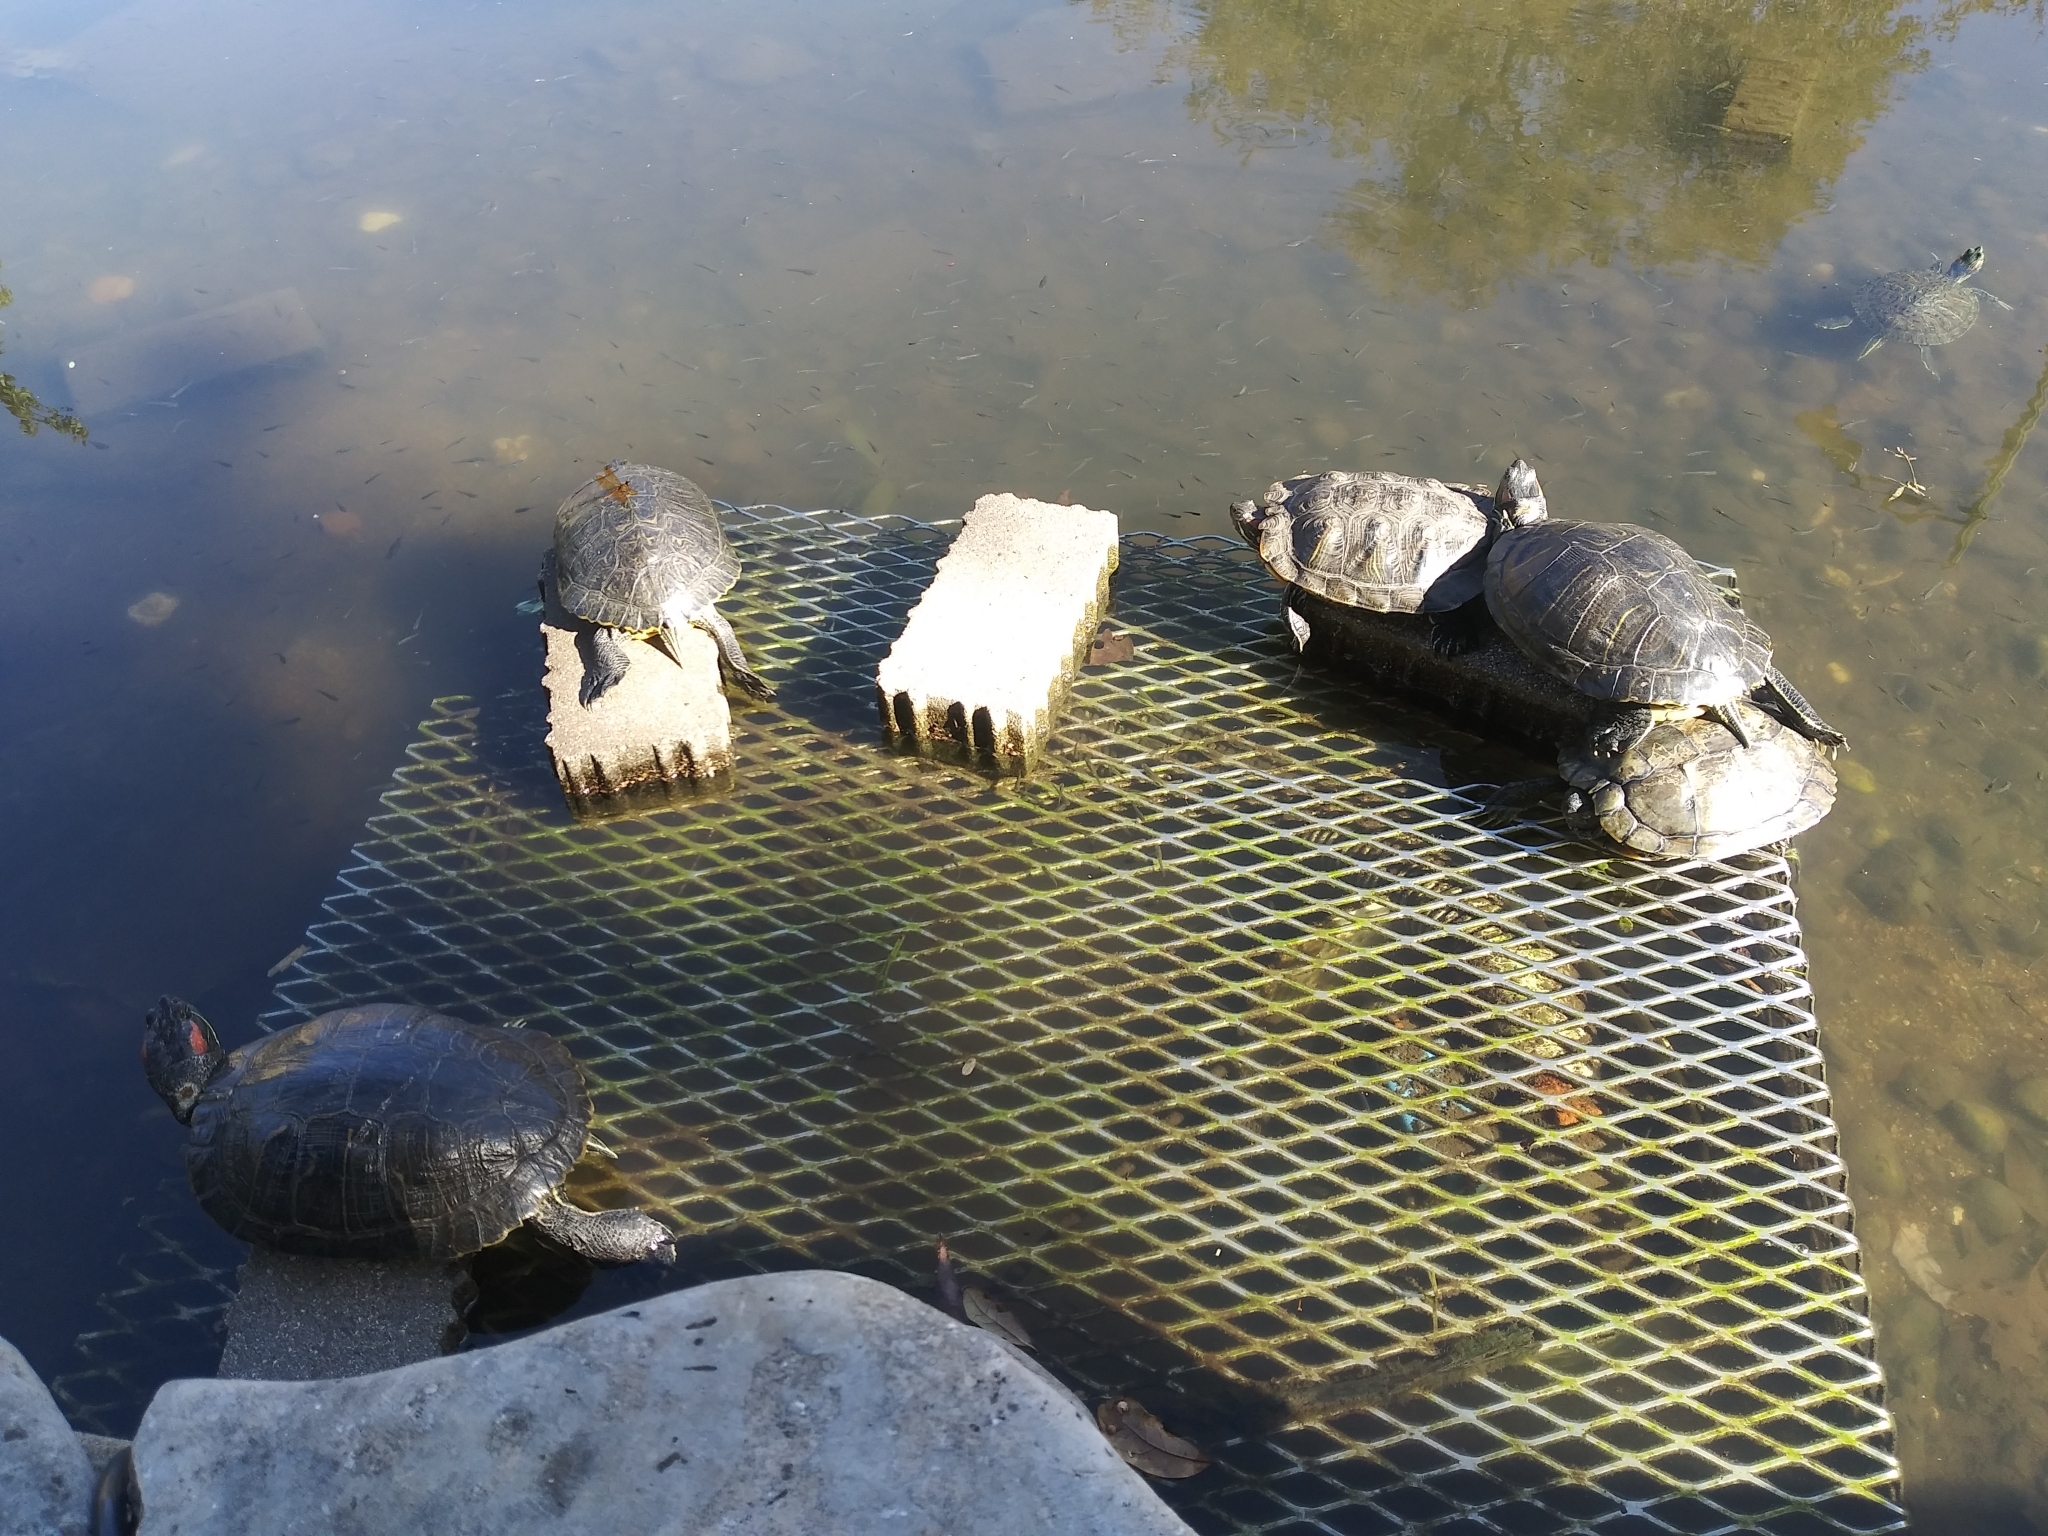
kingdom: Animalia
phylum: Chordata
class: Testudines
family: Emydidae
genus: Trachemys
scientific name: Trachemys scripta
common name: Slider
